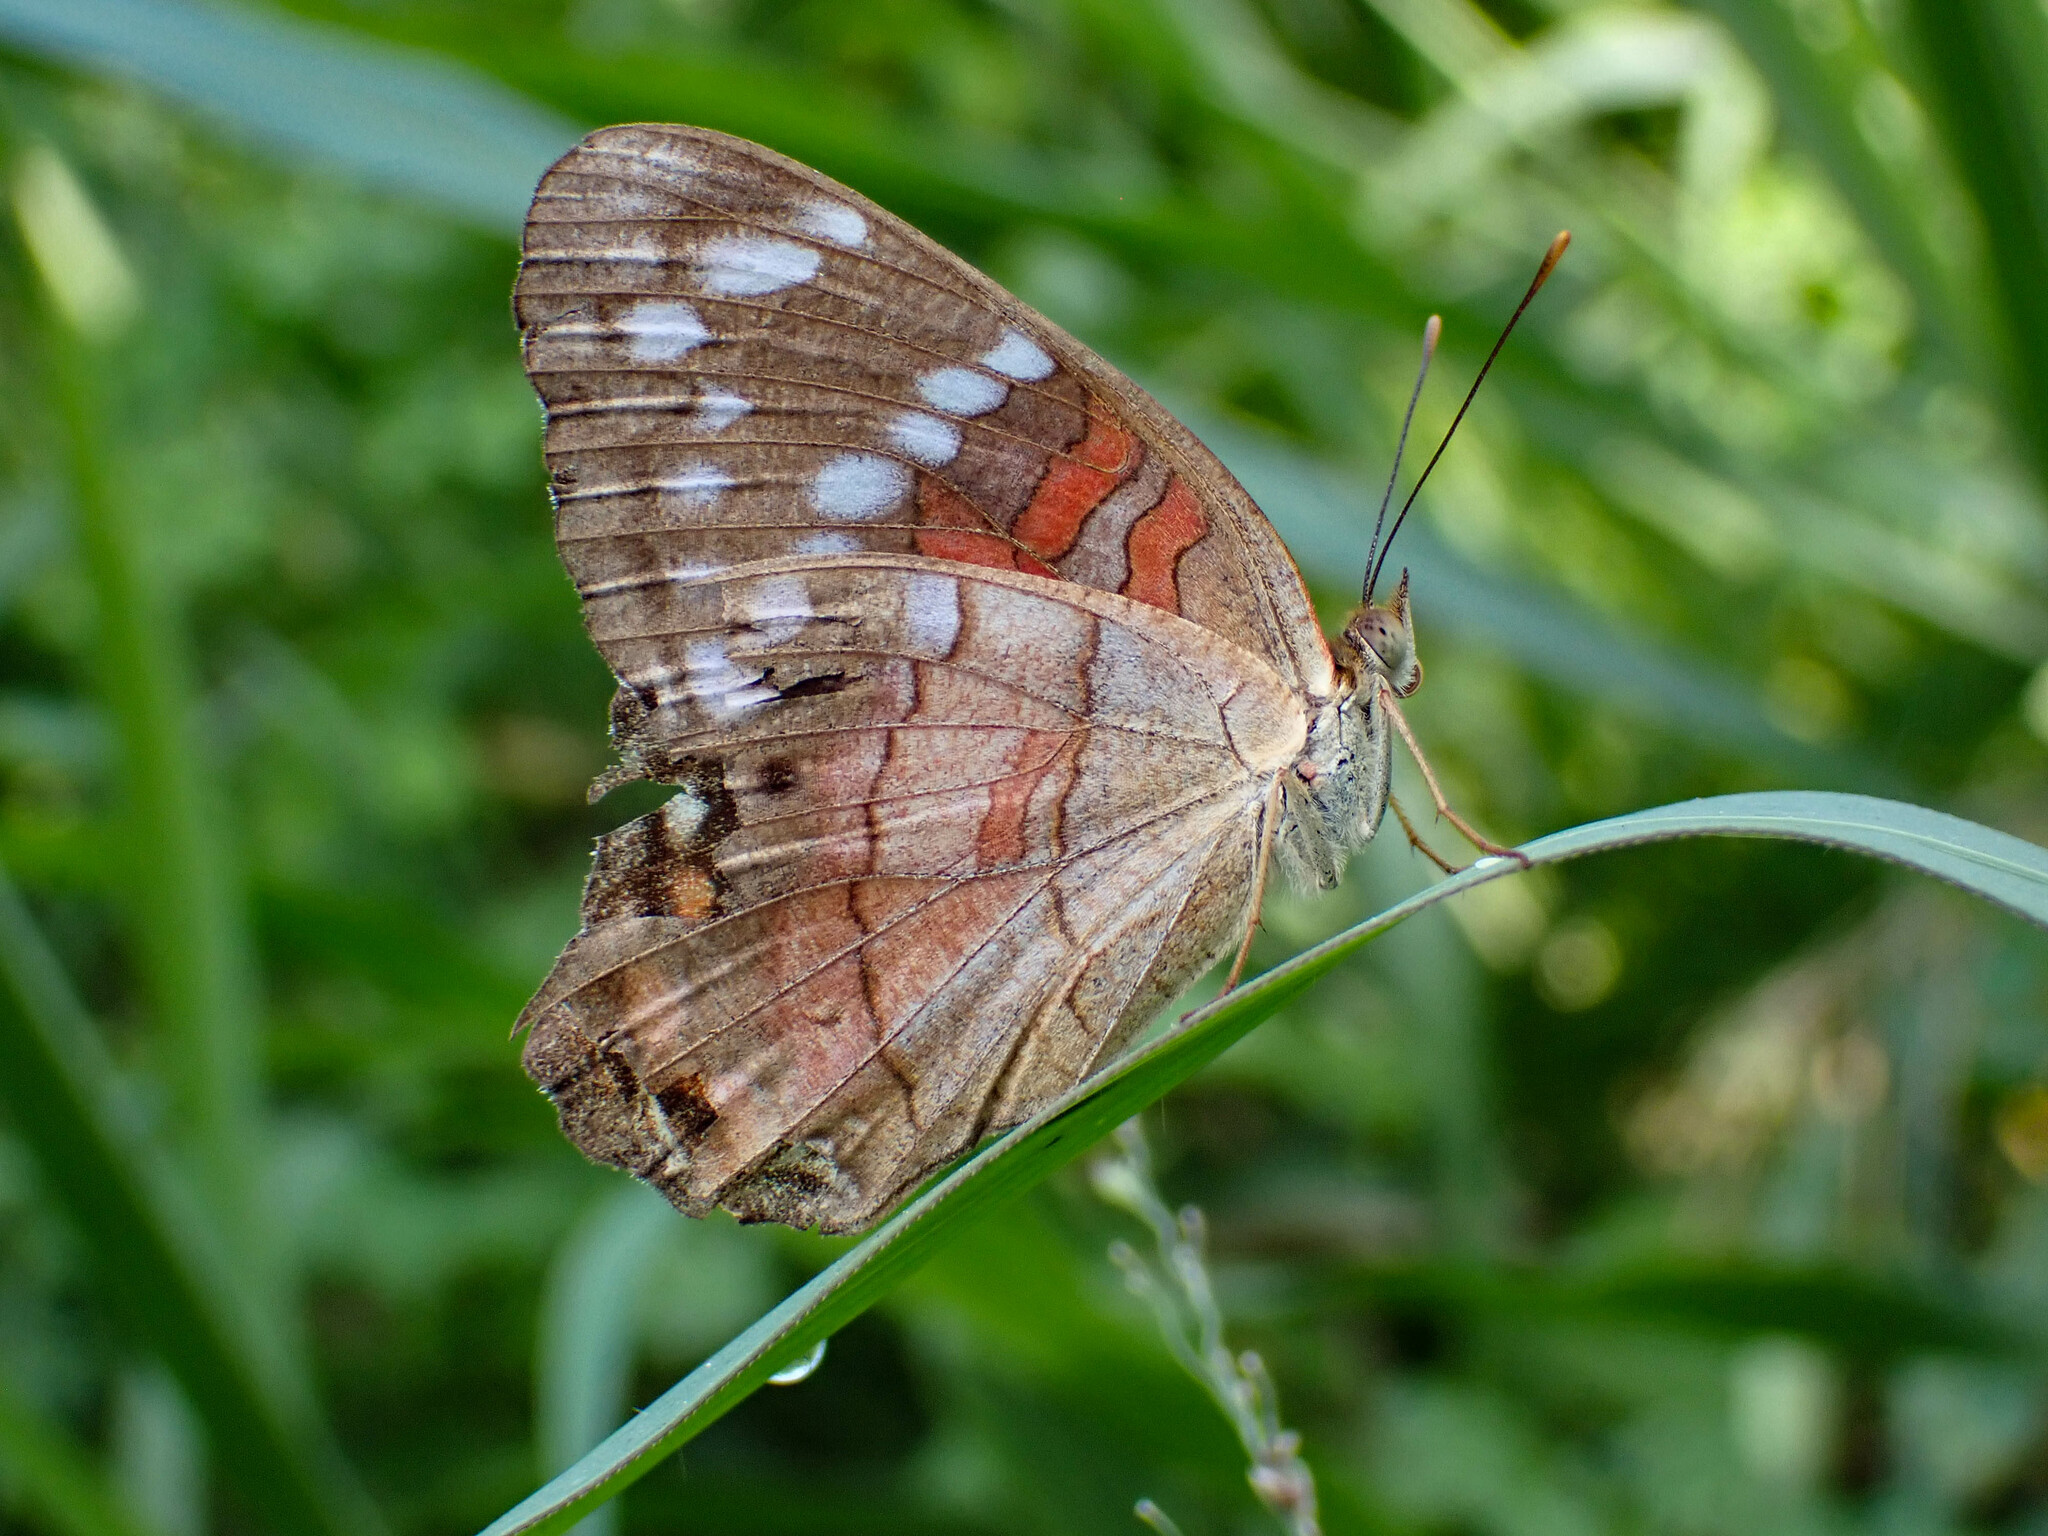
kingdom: Animalia
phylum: Arthropoda
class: Insecta
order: Lepidoptera
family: Nymphalidae
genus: Anartia
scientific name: Anartia amathea
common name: Red peacock
